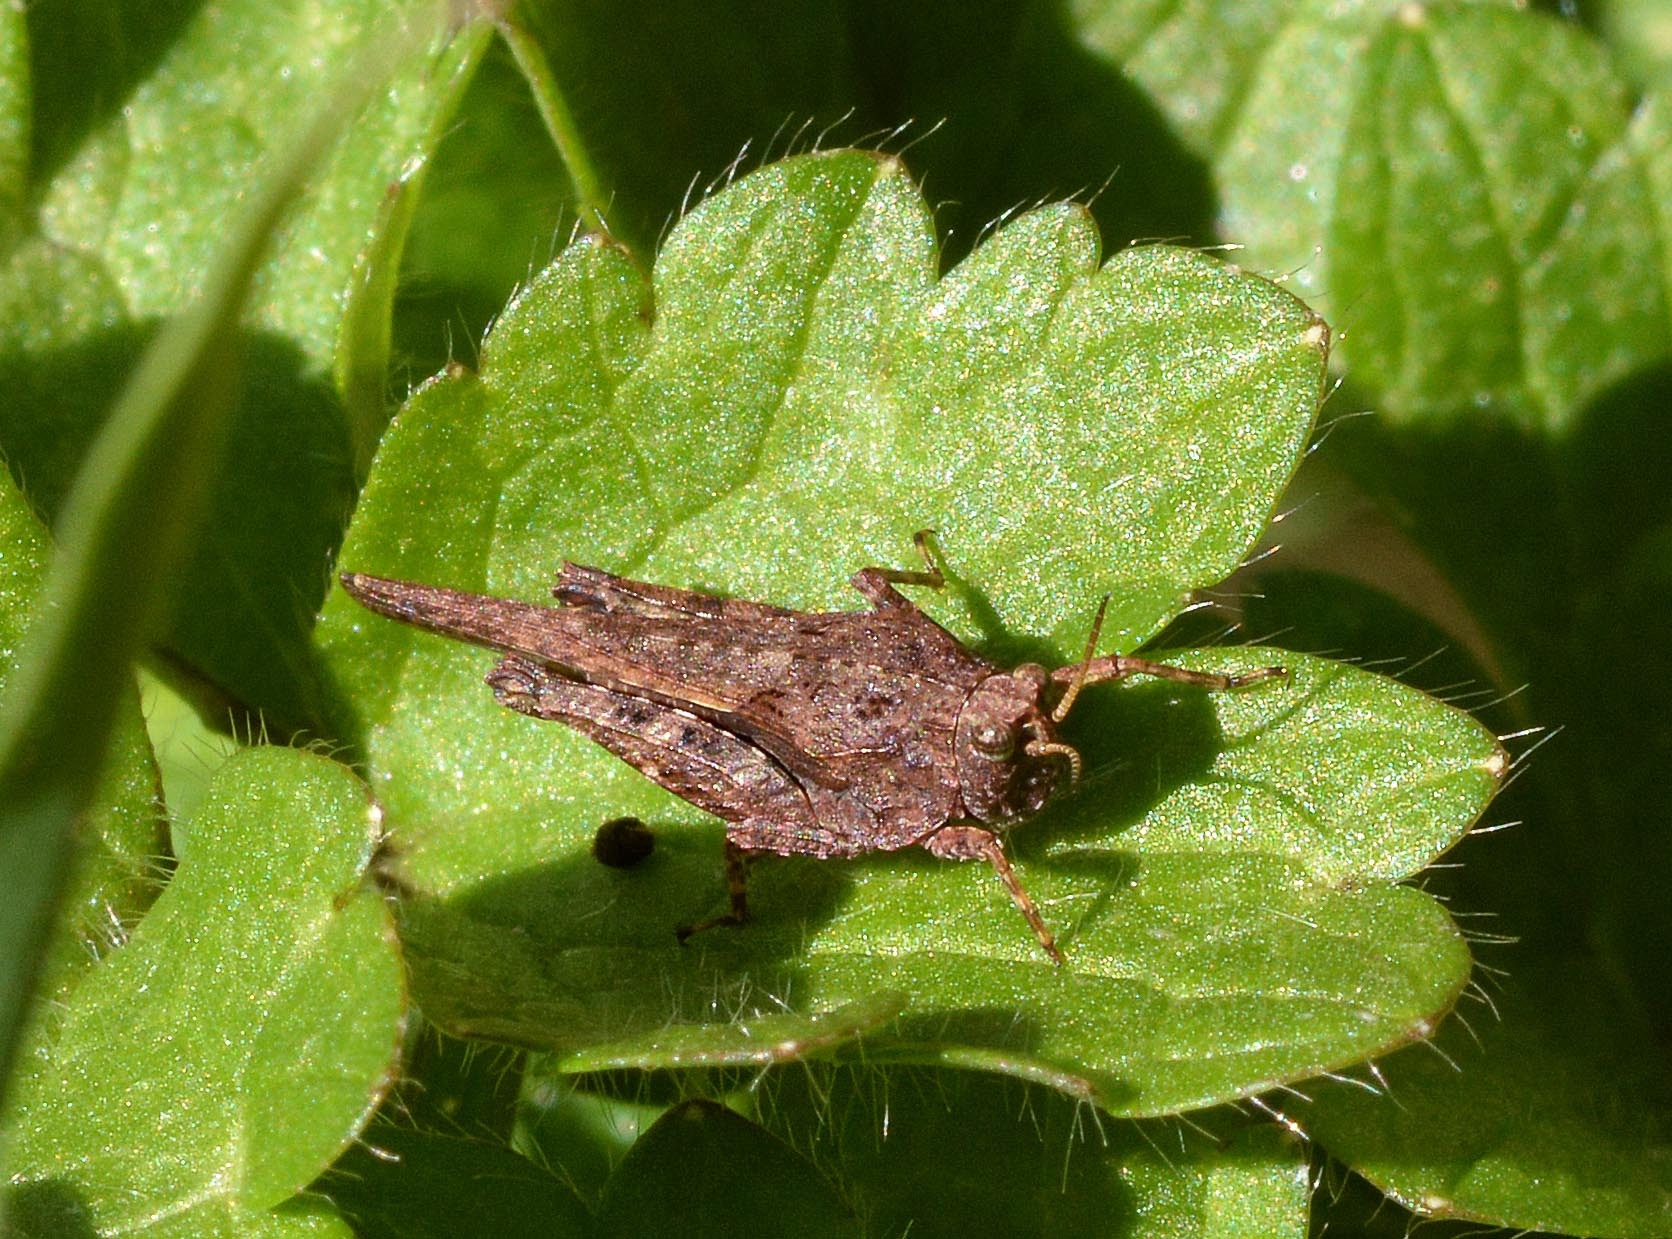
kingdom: Animalia
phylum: Arthropoda
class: Insecta
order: Orthoptera
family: Tetrigidae
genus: Tetrix
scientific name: Tetrix subulata
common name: Slender ground-hopper
